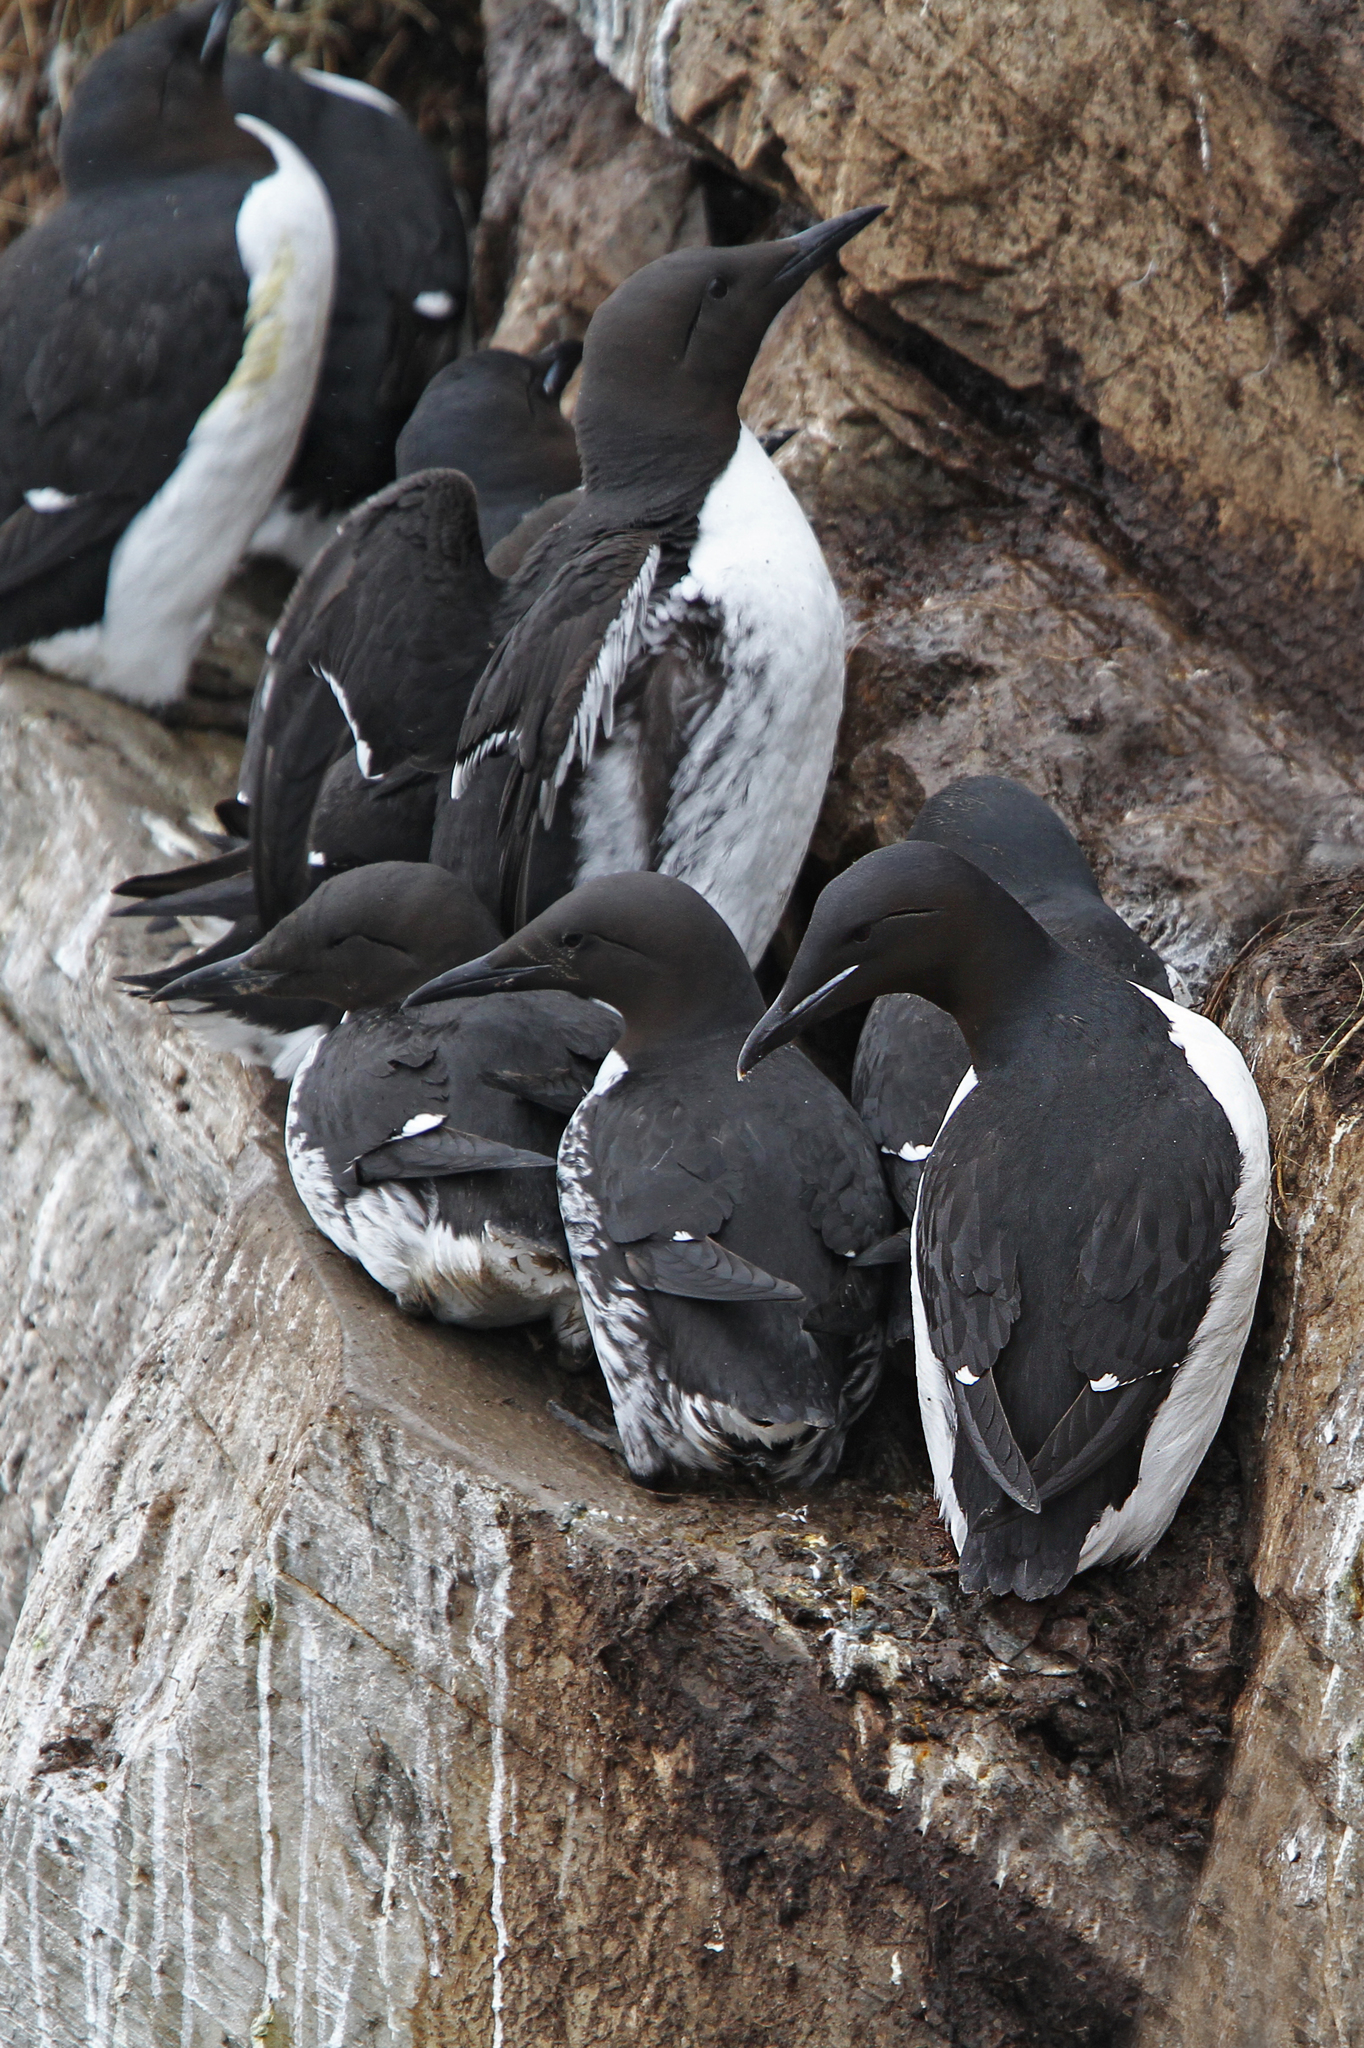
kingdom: Animalia
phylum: Chordata
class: Aves
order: Charadriiformes
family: Alcidae
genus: Uria
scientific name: Uria lomvia
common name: Thick-billed murre
